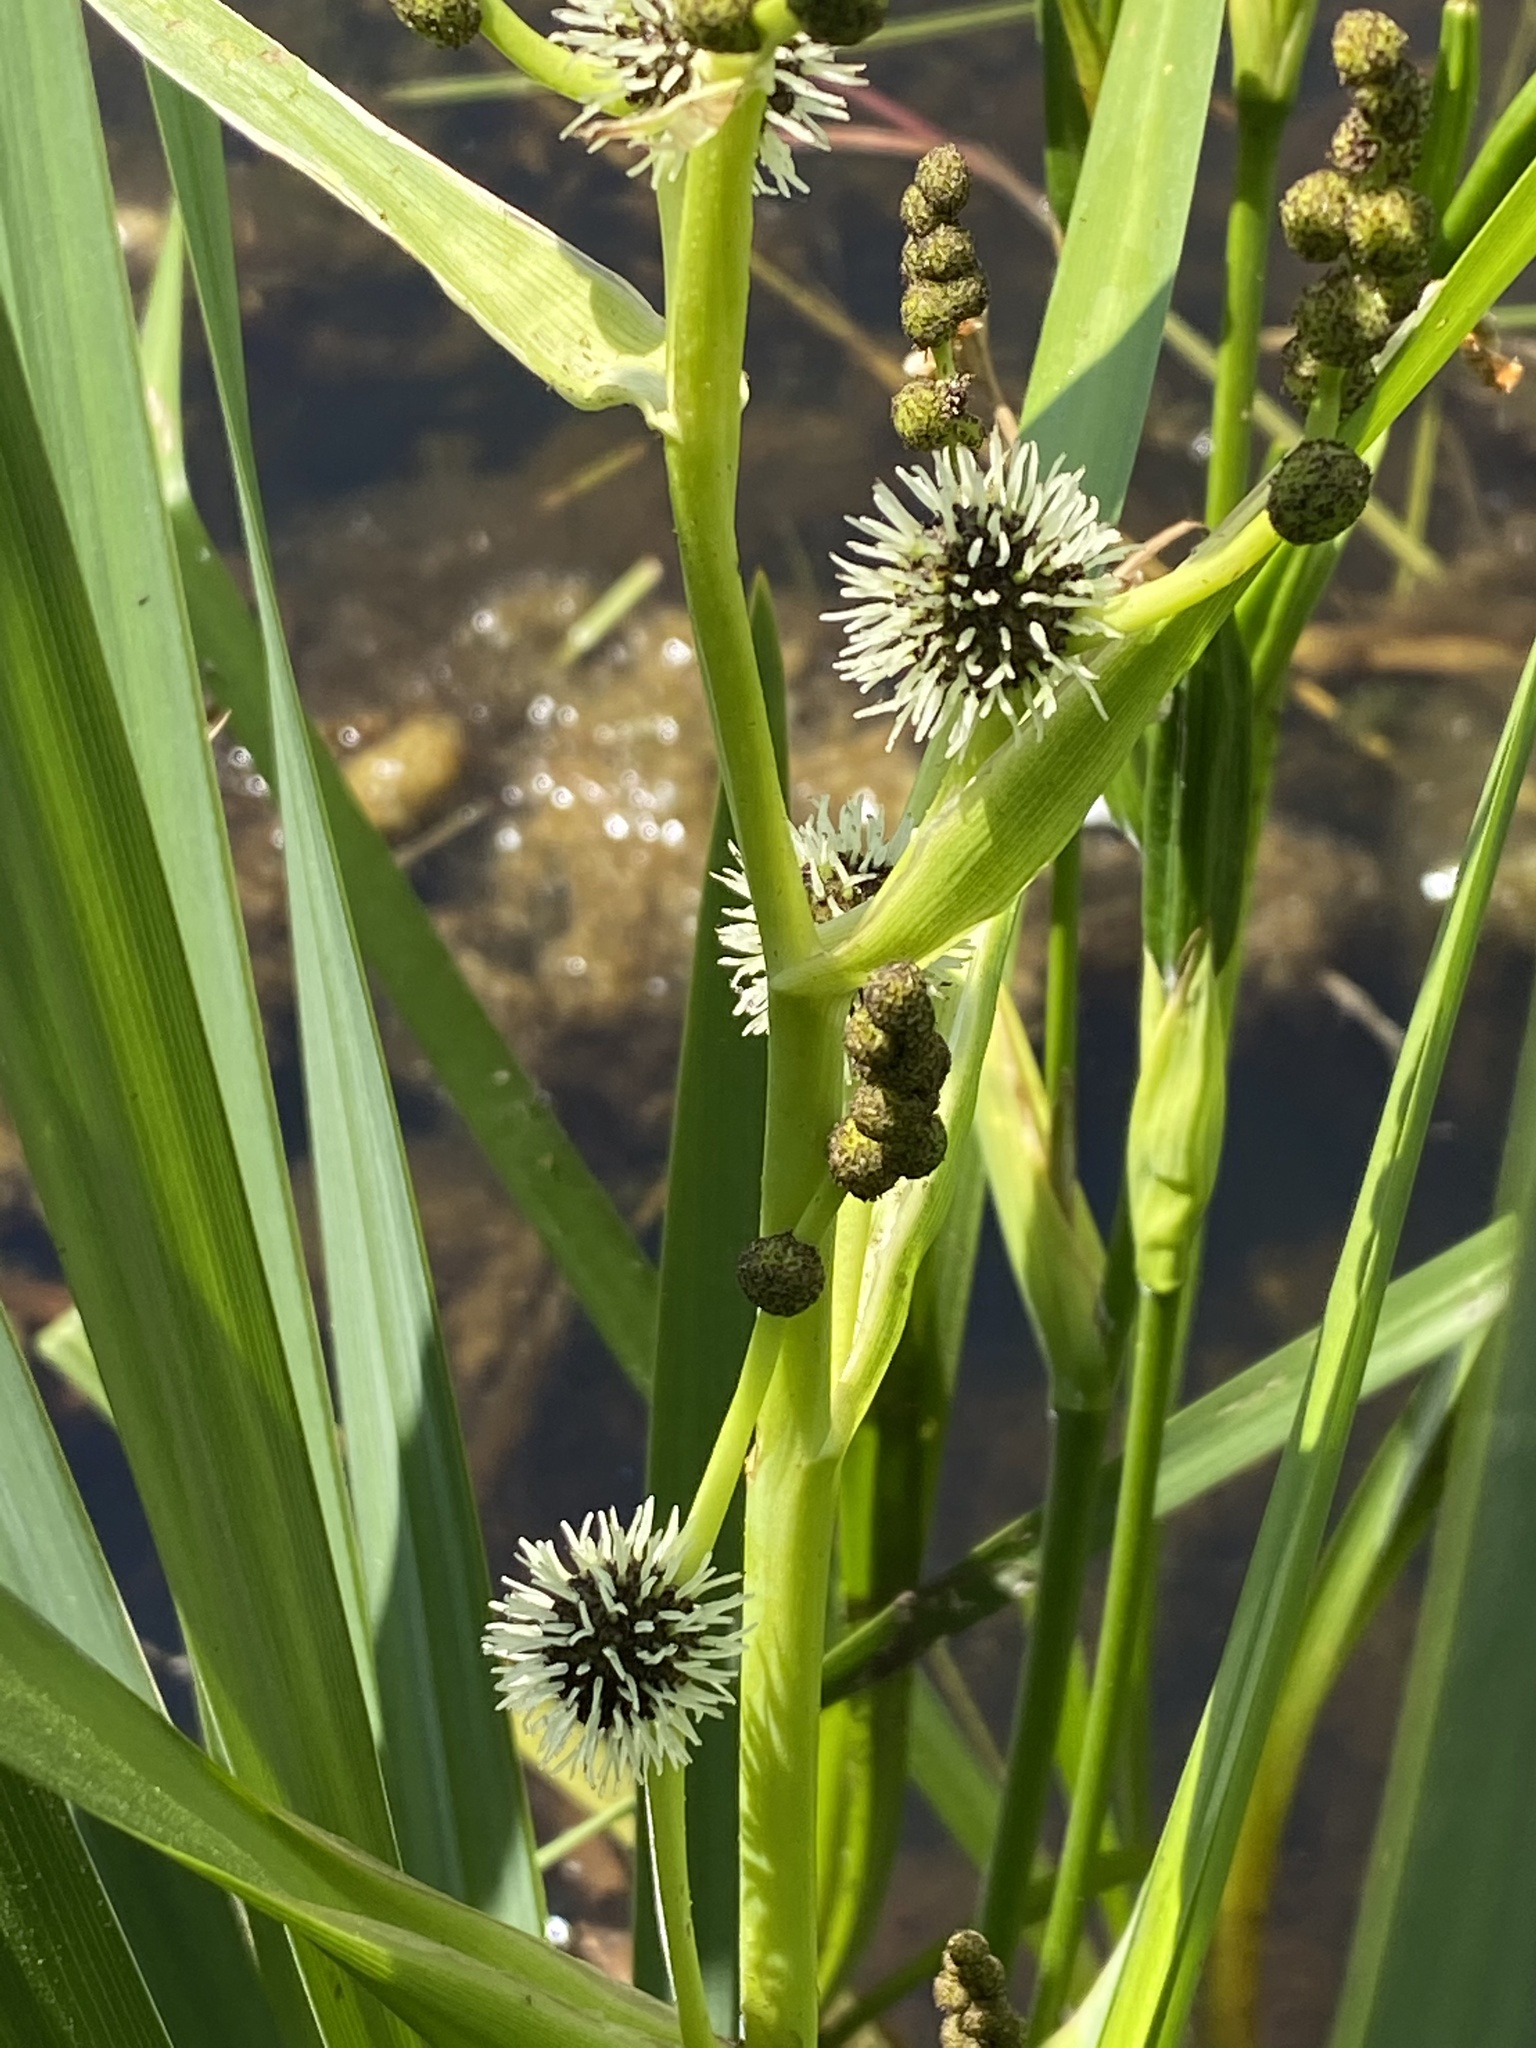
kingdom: Plantae
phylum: Tracheophyta
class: Liliopsida
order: Poales
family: Typhaceae
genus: Sparganium
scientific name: Sparganium erectum
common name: Branched bur-reed
